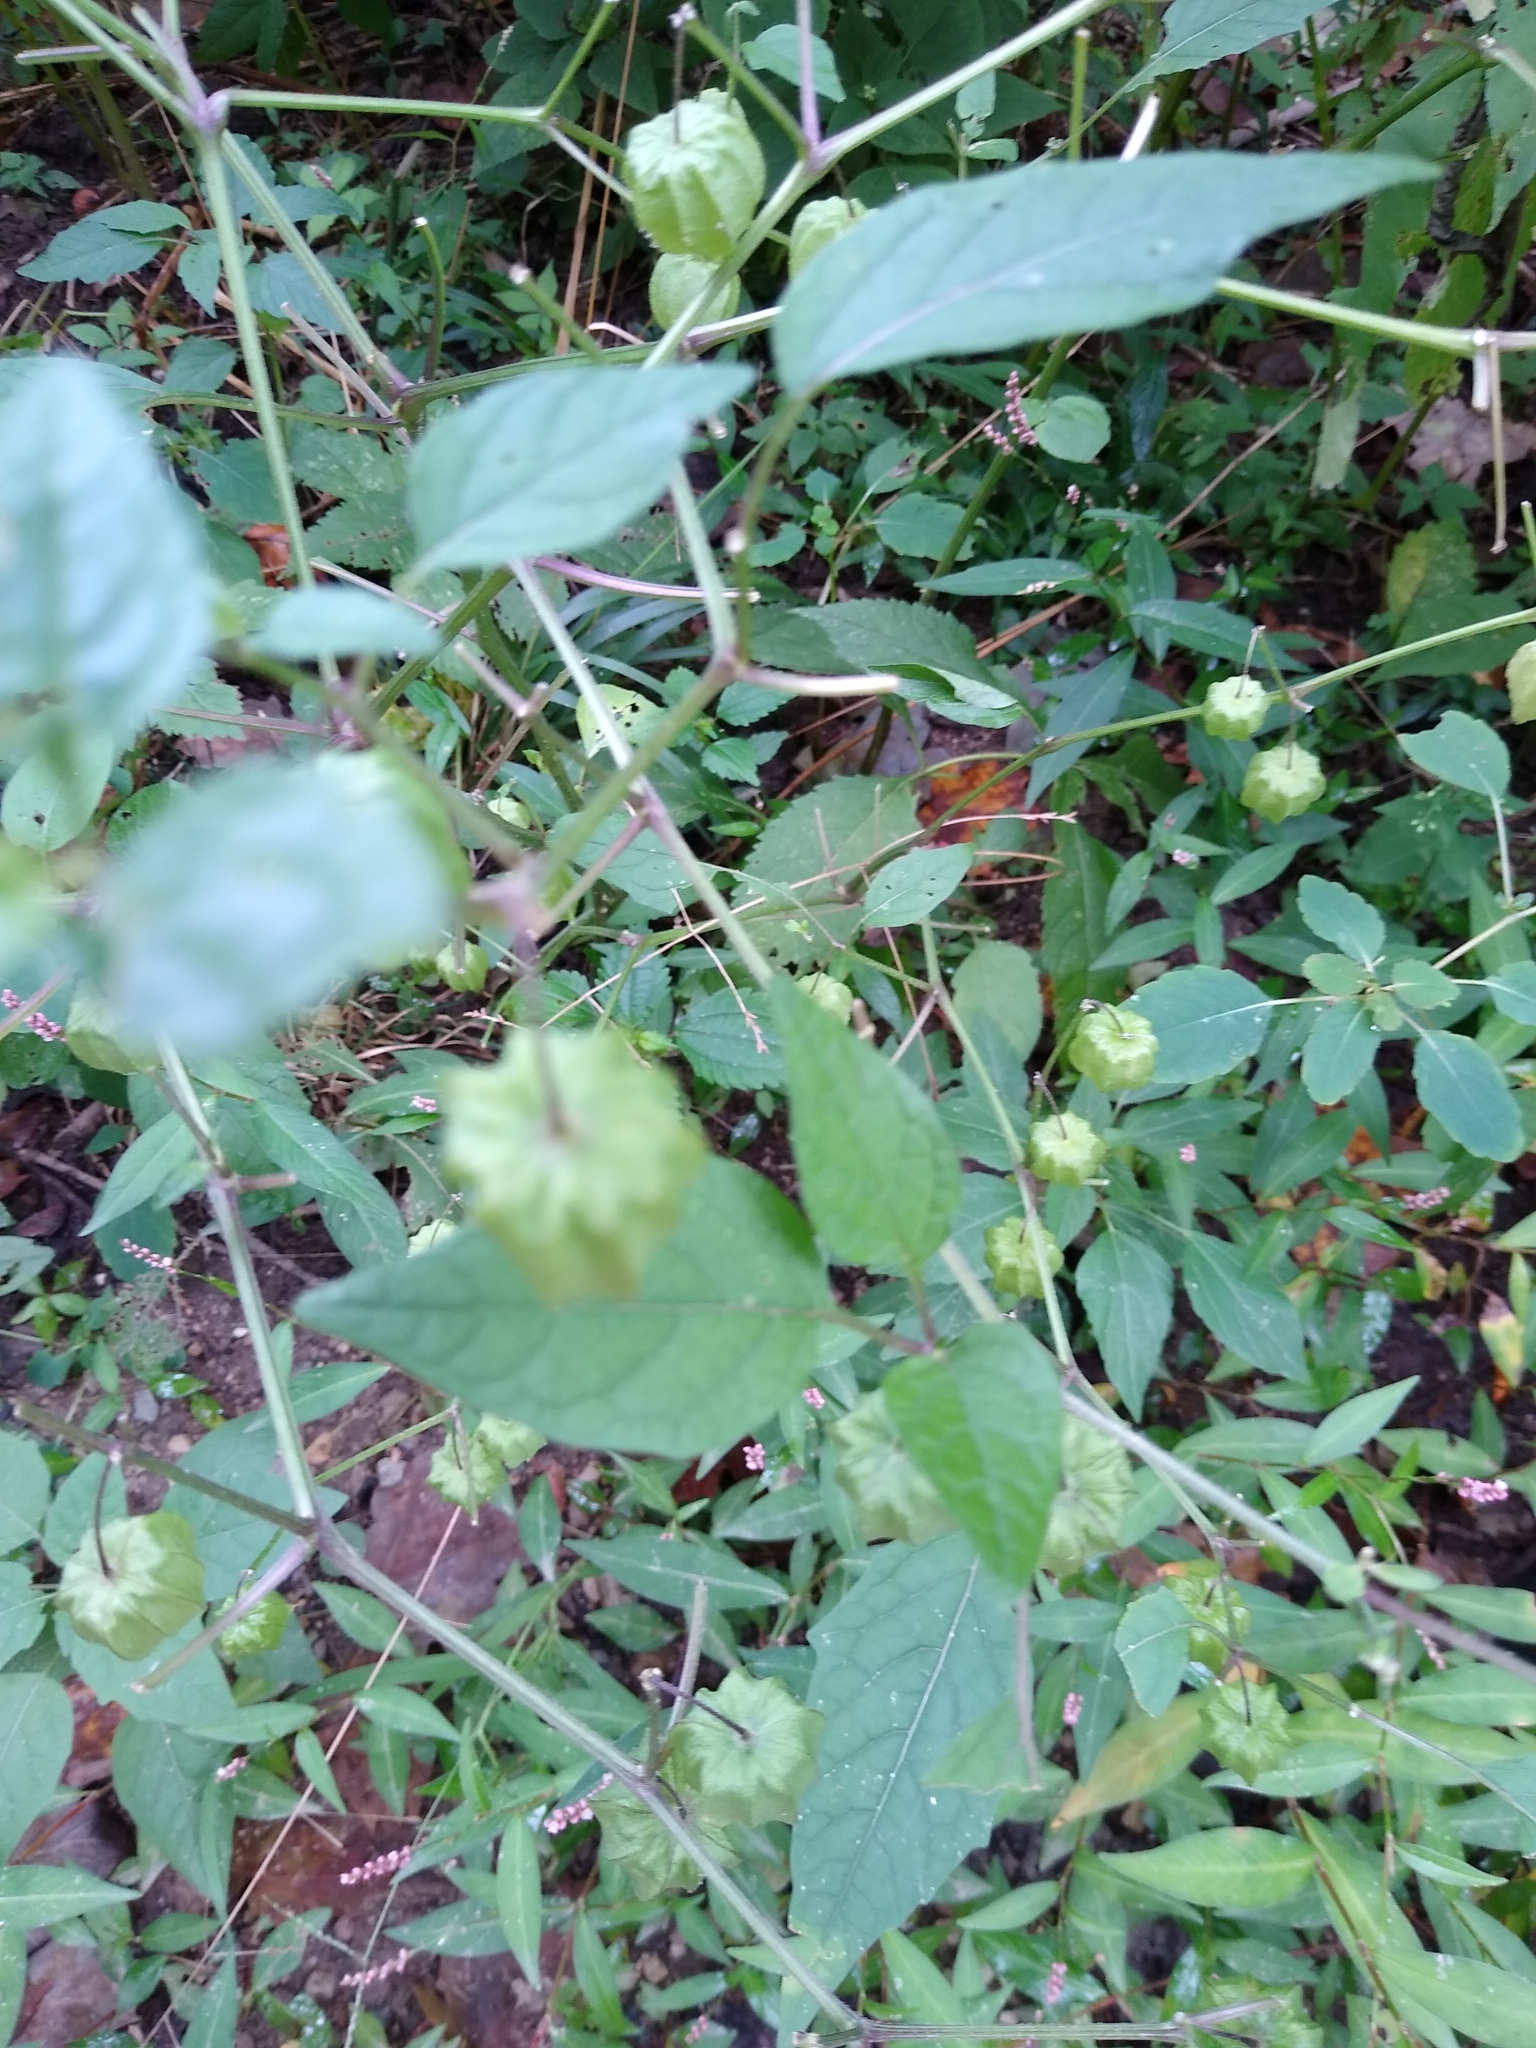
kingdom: Plantae
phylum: Tracheophyta
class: Magnoliopsida
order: Solanales
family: Solanaceae
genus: Physalis
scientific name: Physalis longifolia
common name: Common ground-cherry
